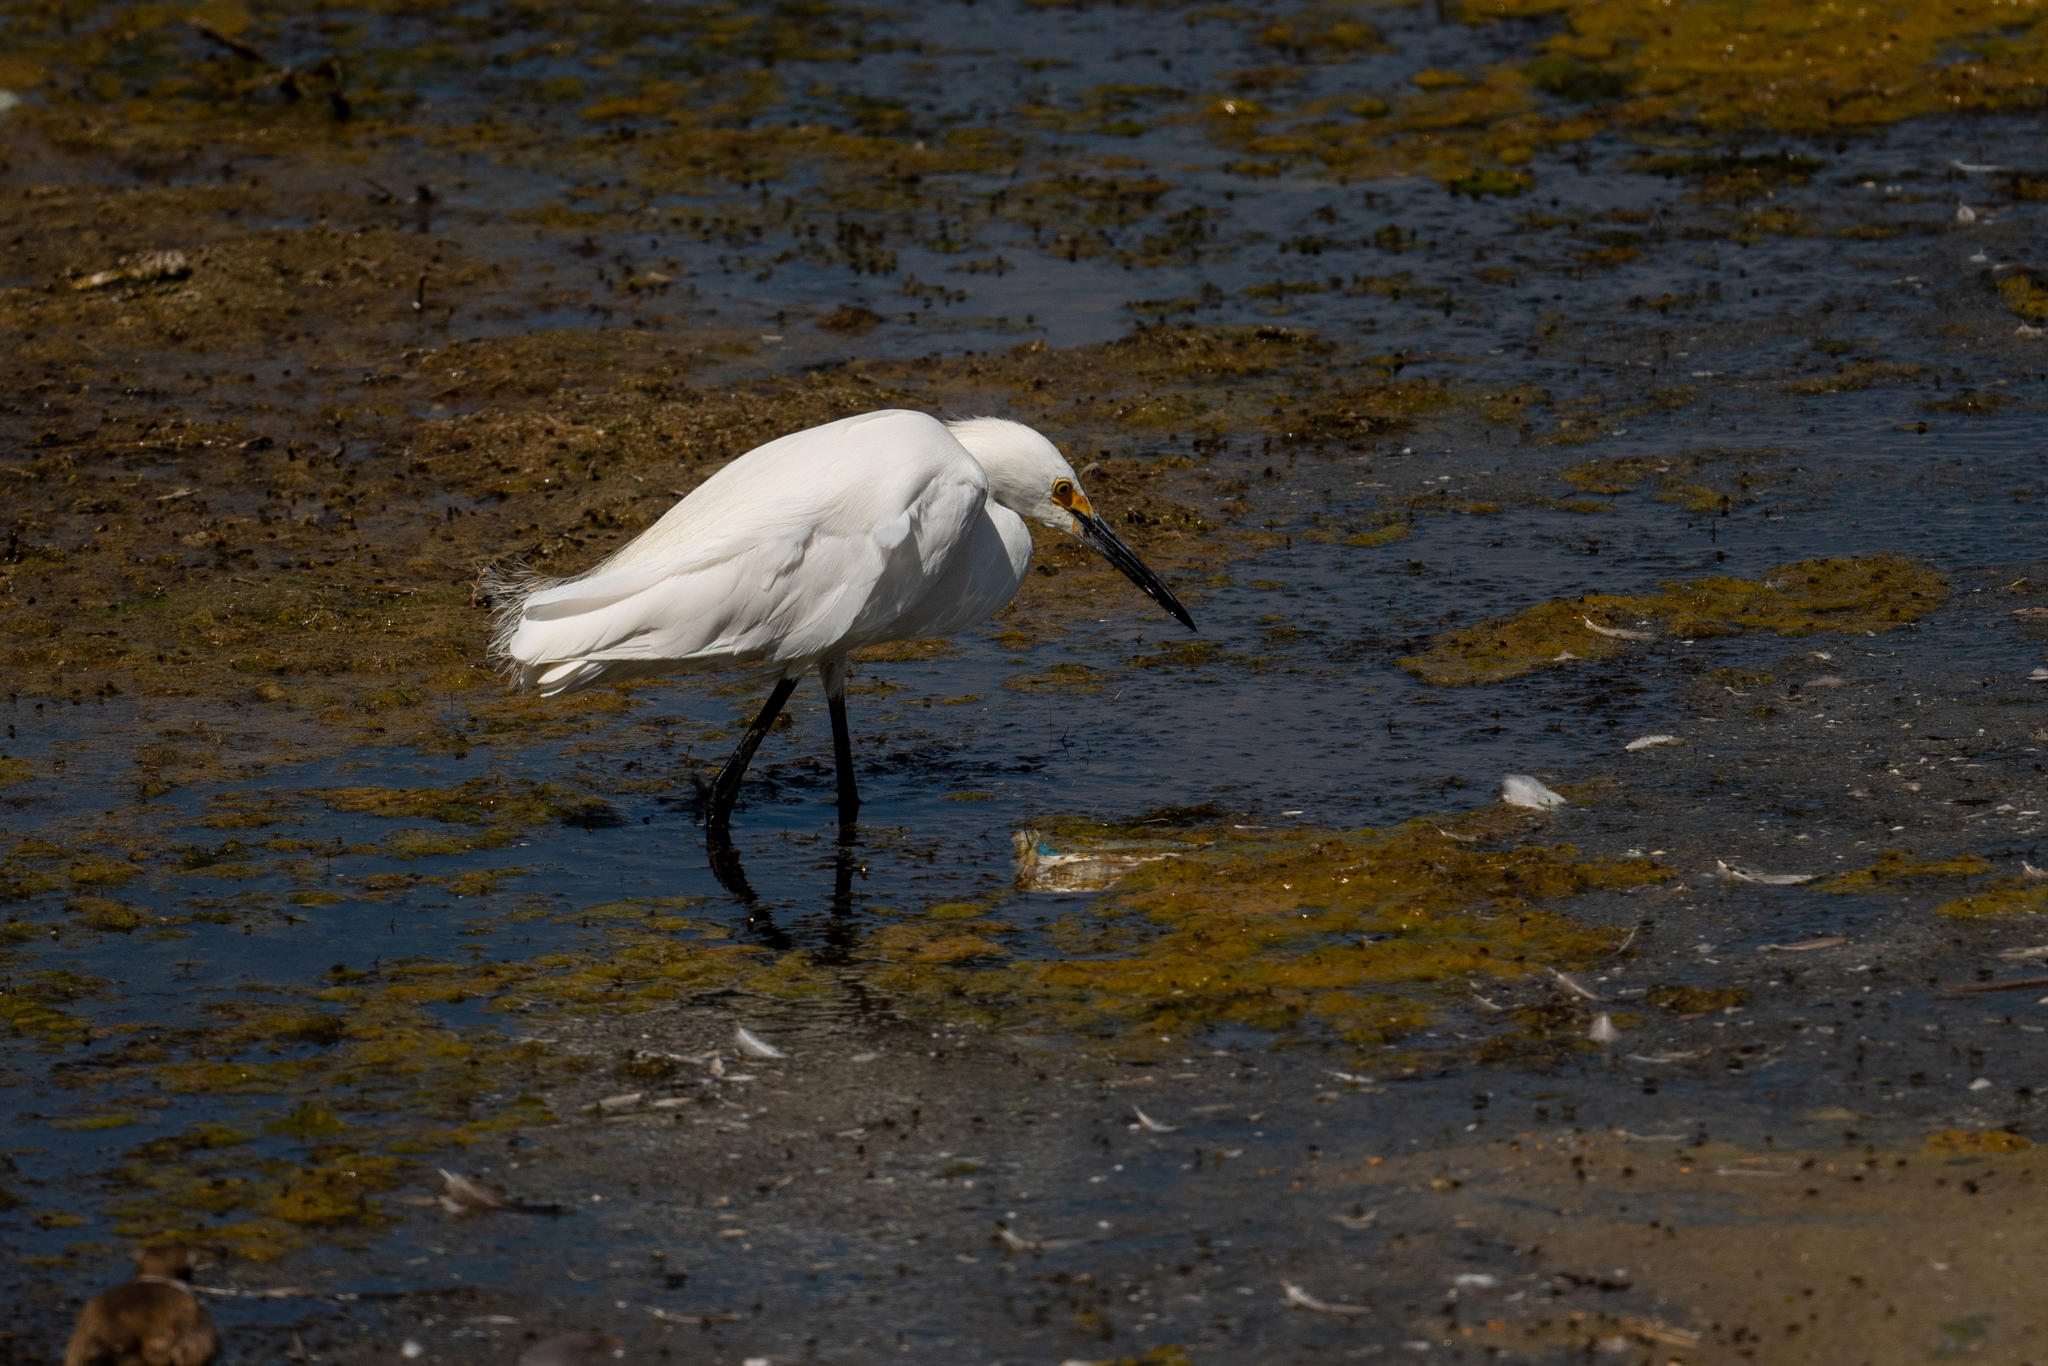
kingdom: Animalia
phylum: Chordata
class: Aves
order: Pelecaniformes
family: Ardeidae
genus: Egretta
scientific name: Egretta thula
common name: Snowy egret
